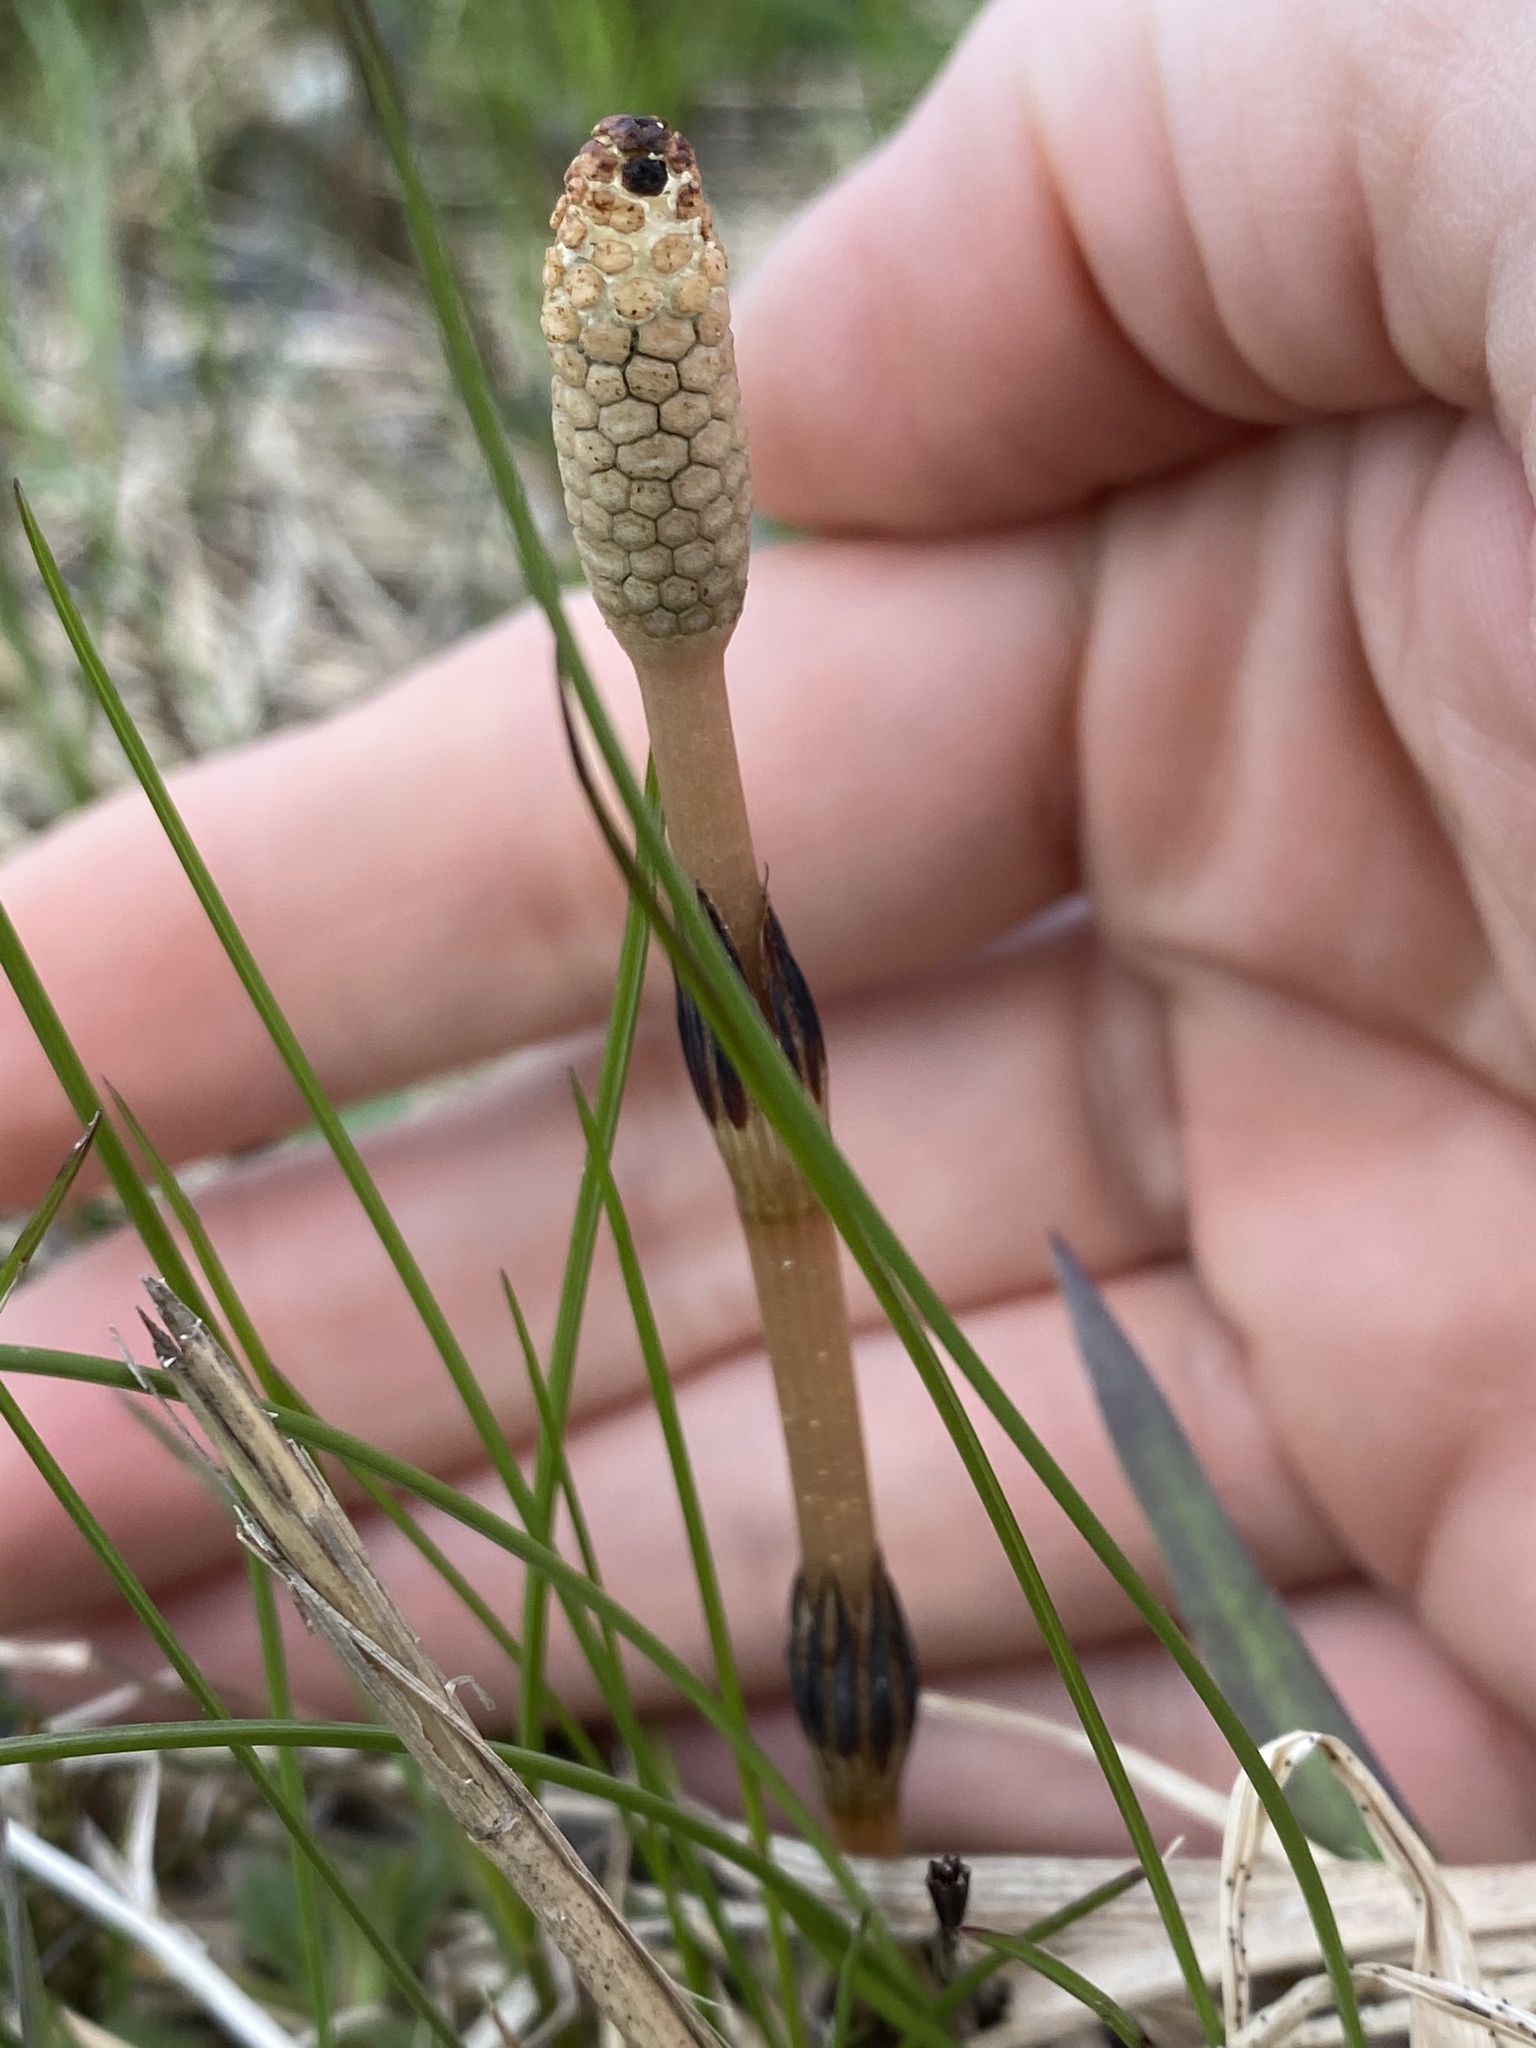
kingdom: Plantae
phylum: Tracheophyta
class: Polypodiopsida
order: Equisetales
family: Equisetaceae
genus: Equisetum
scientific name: Equisetum arvense
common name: Field horsetail
